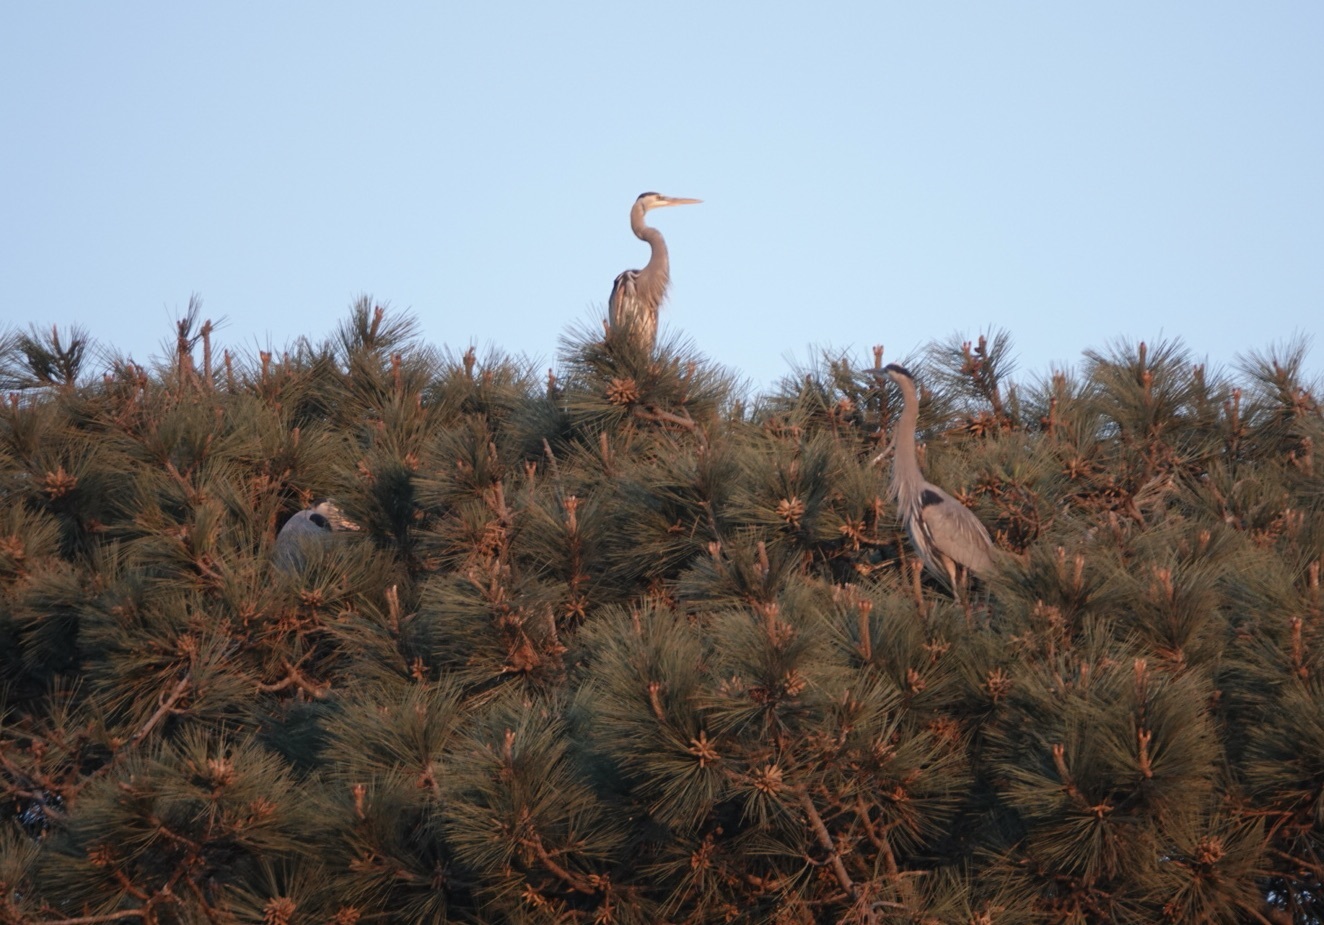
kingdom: Animalia
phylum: Chordata
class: Aves
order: Pelecaniformes
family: Ardeidae
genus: Ardea
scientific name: Ardea herodias
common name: Great blue heron
